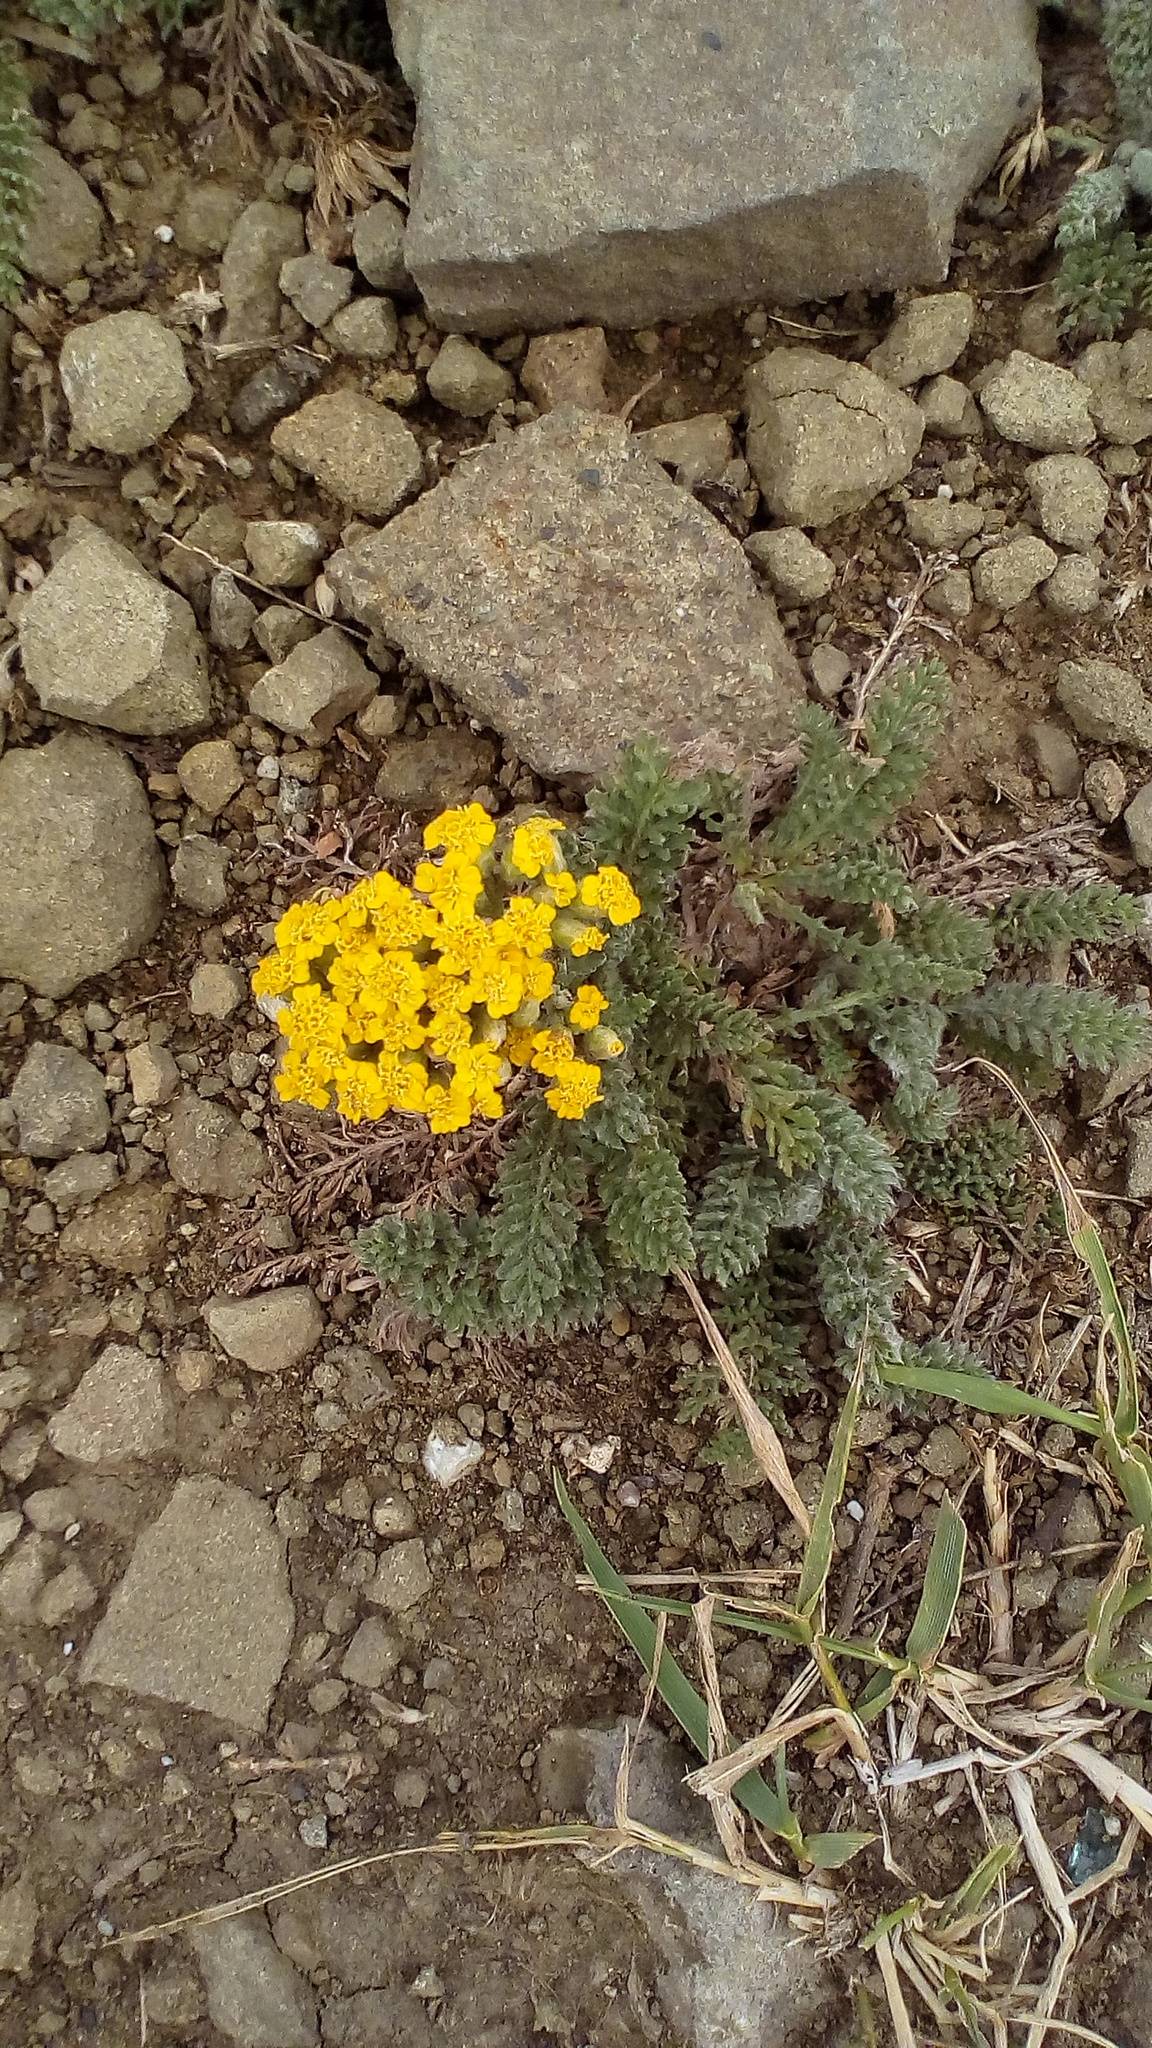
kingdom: Plantae
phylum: Tracheophyta
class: Magnoliopsida
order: Asterales
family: Asteraceae
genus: Achillea
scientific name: Achillea filipendulina
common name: Fernleaf yarrow
